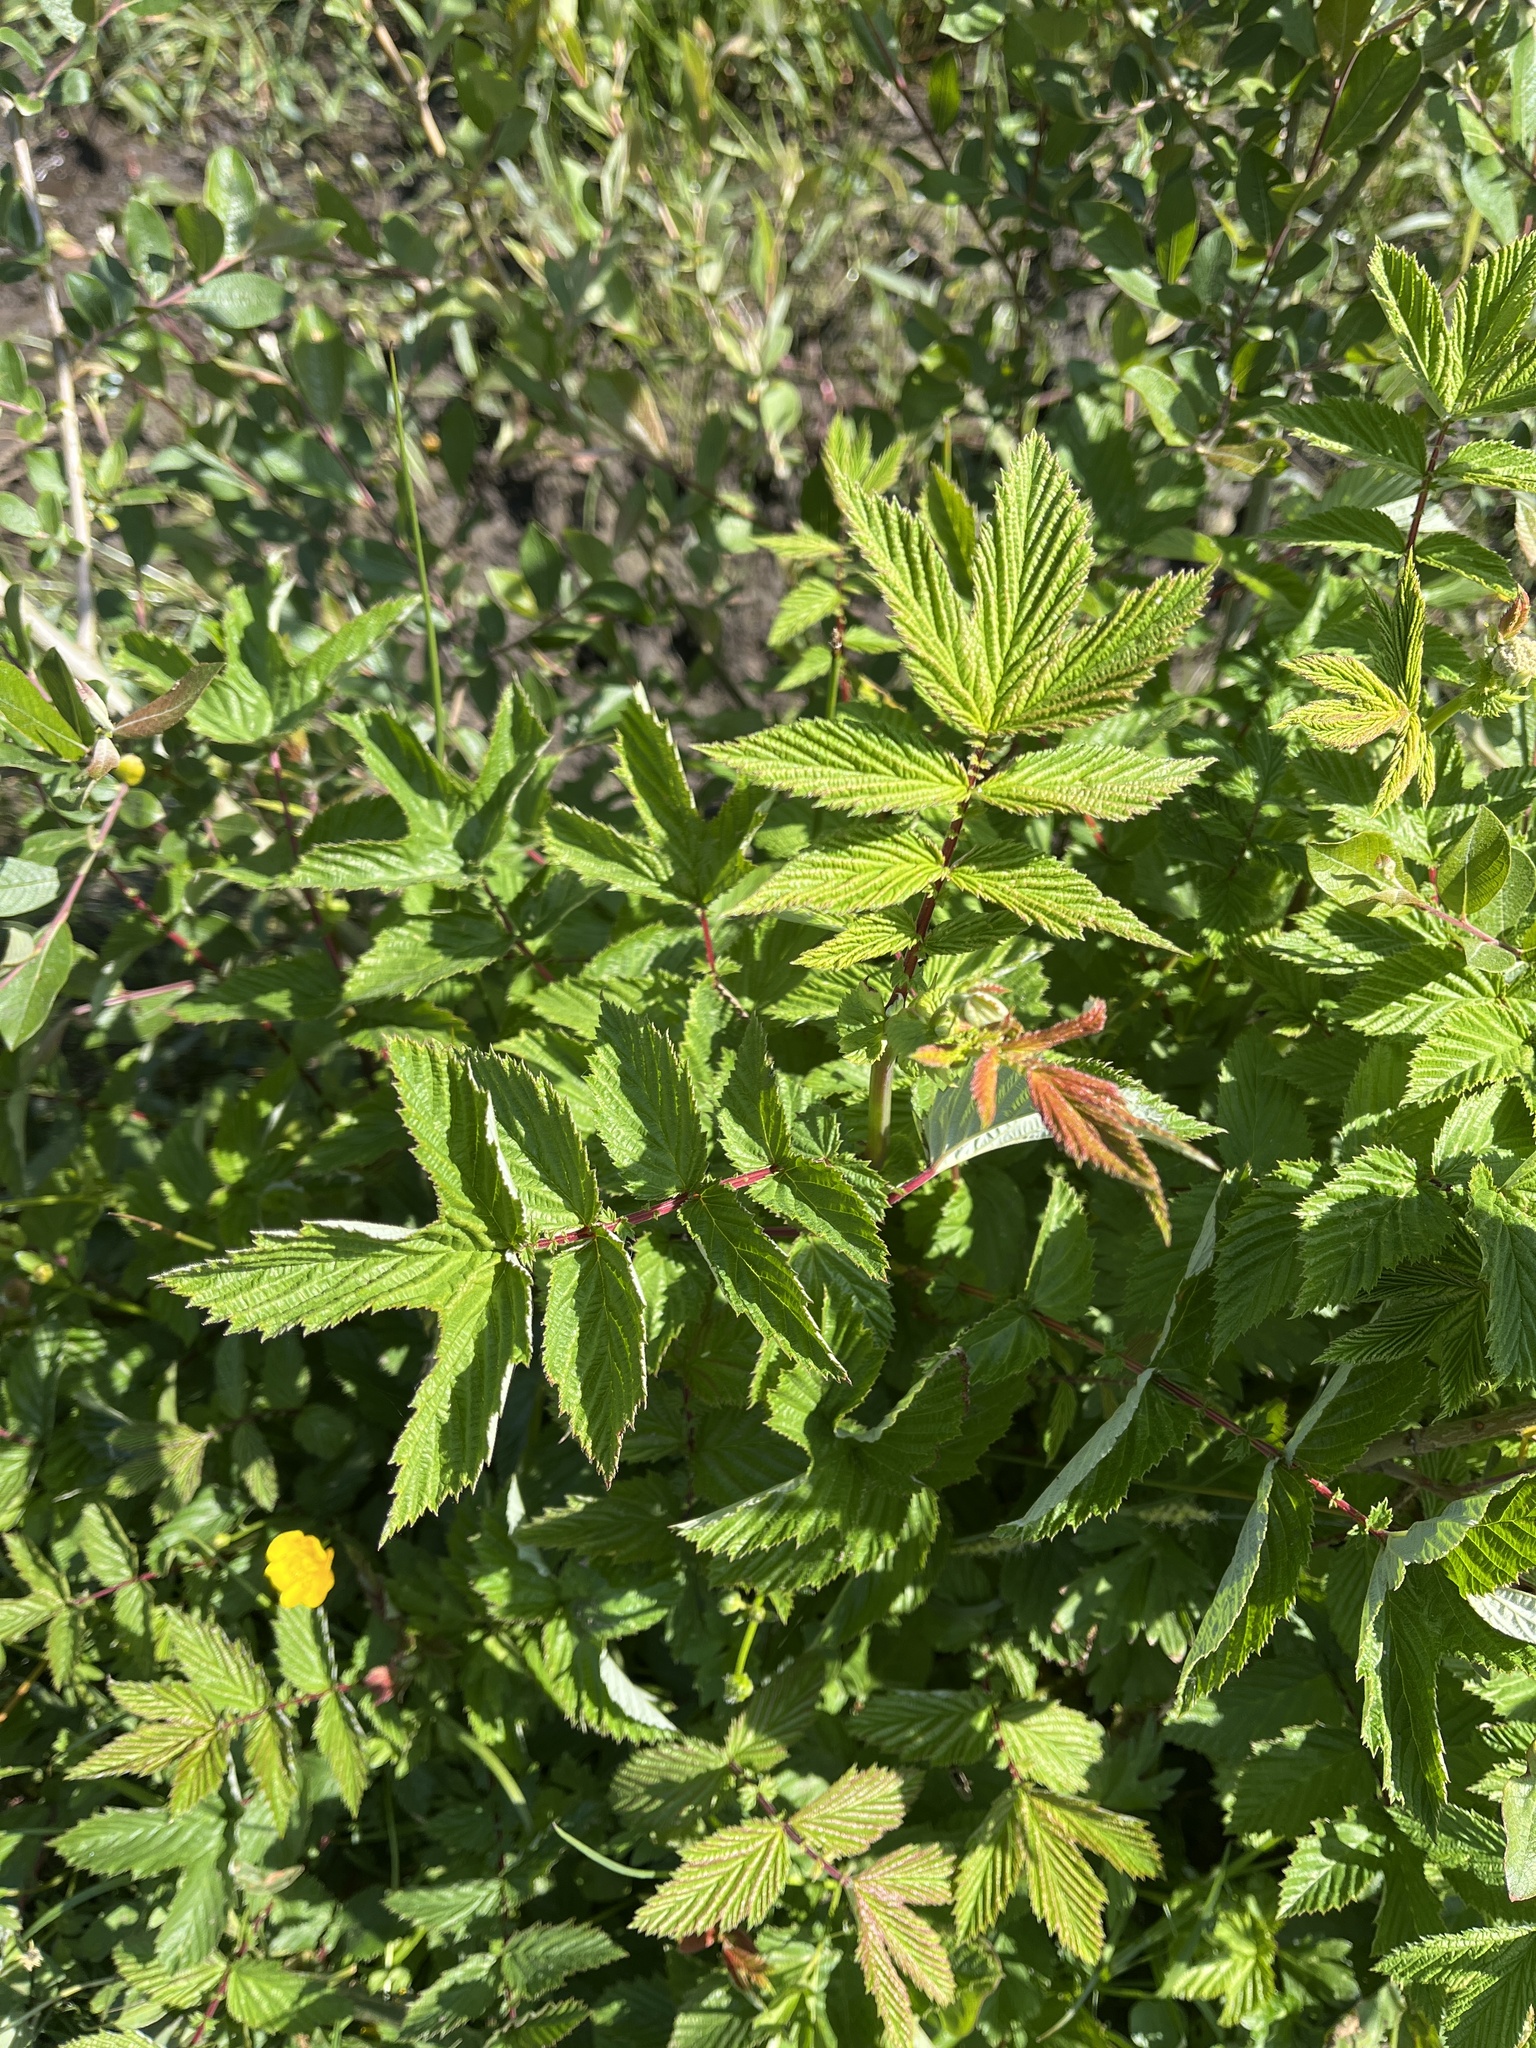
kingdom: Plantae
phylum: Tracheophyta
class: Magnoliopsida
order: Rosales
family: Rosaceae
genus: Filipendula
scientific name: Filipendula ulmaria
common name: Meadowsweet
